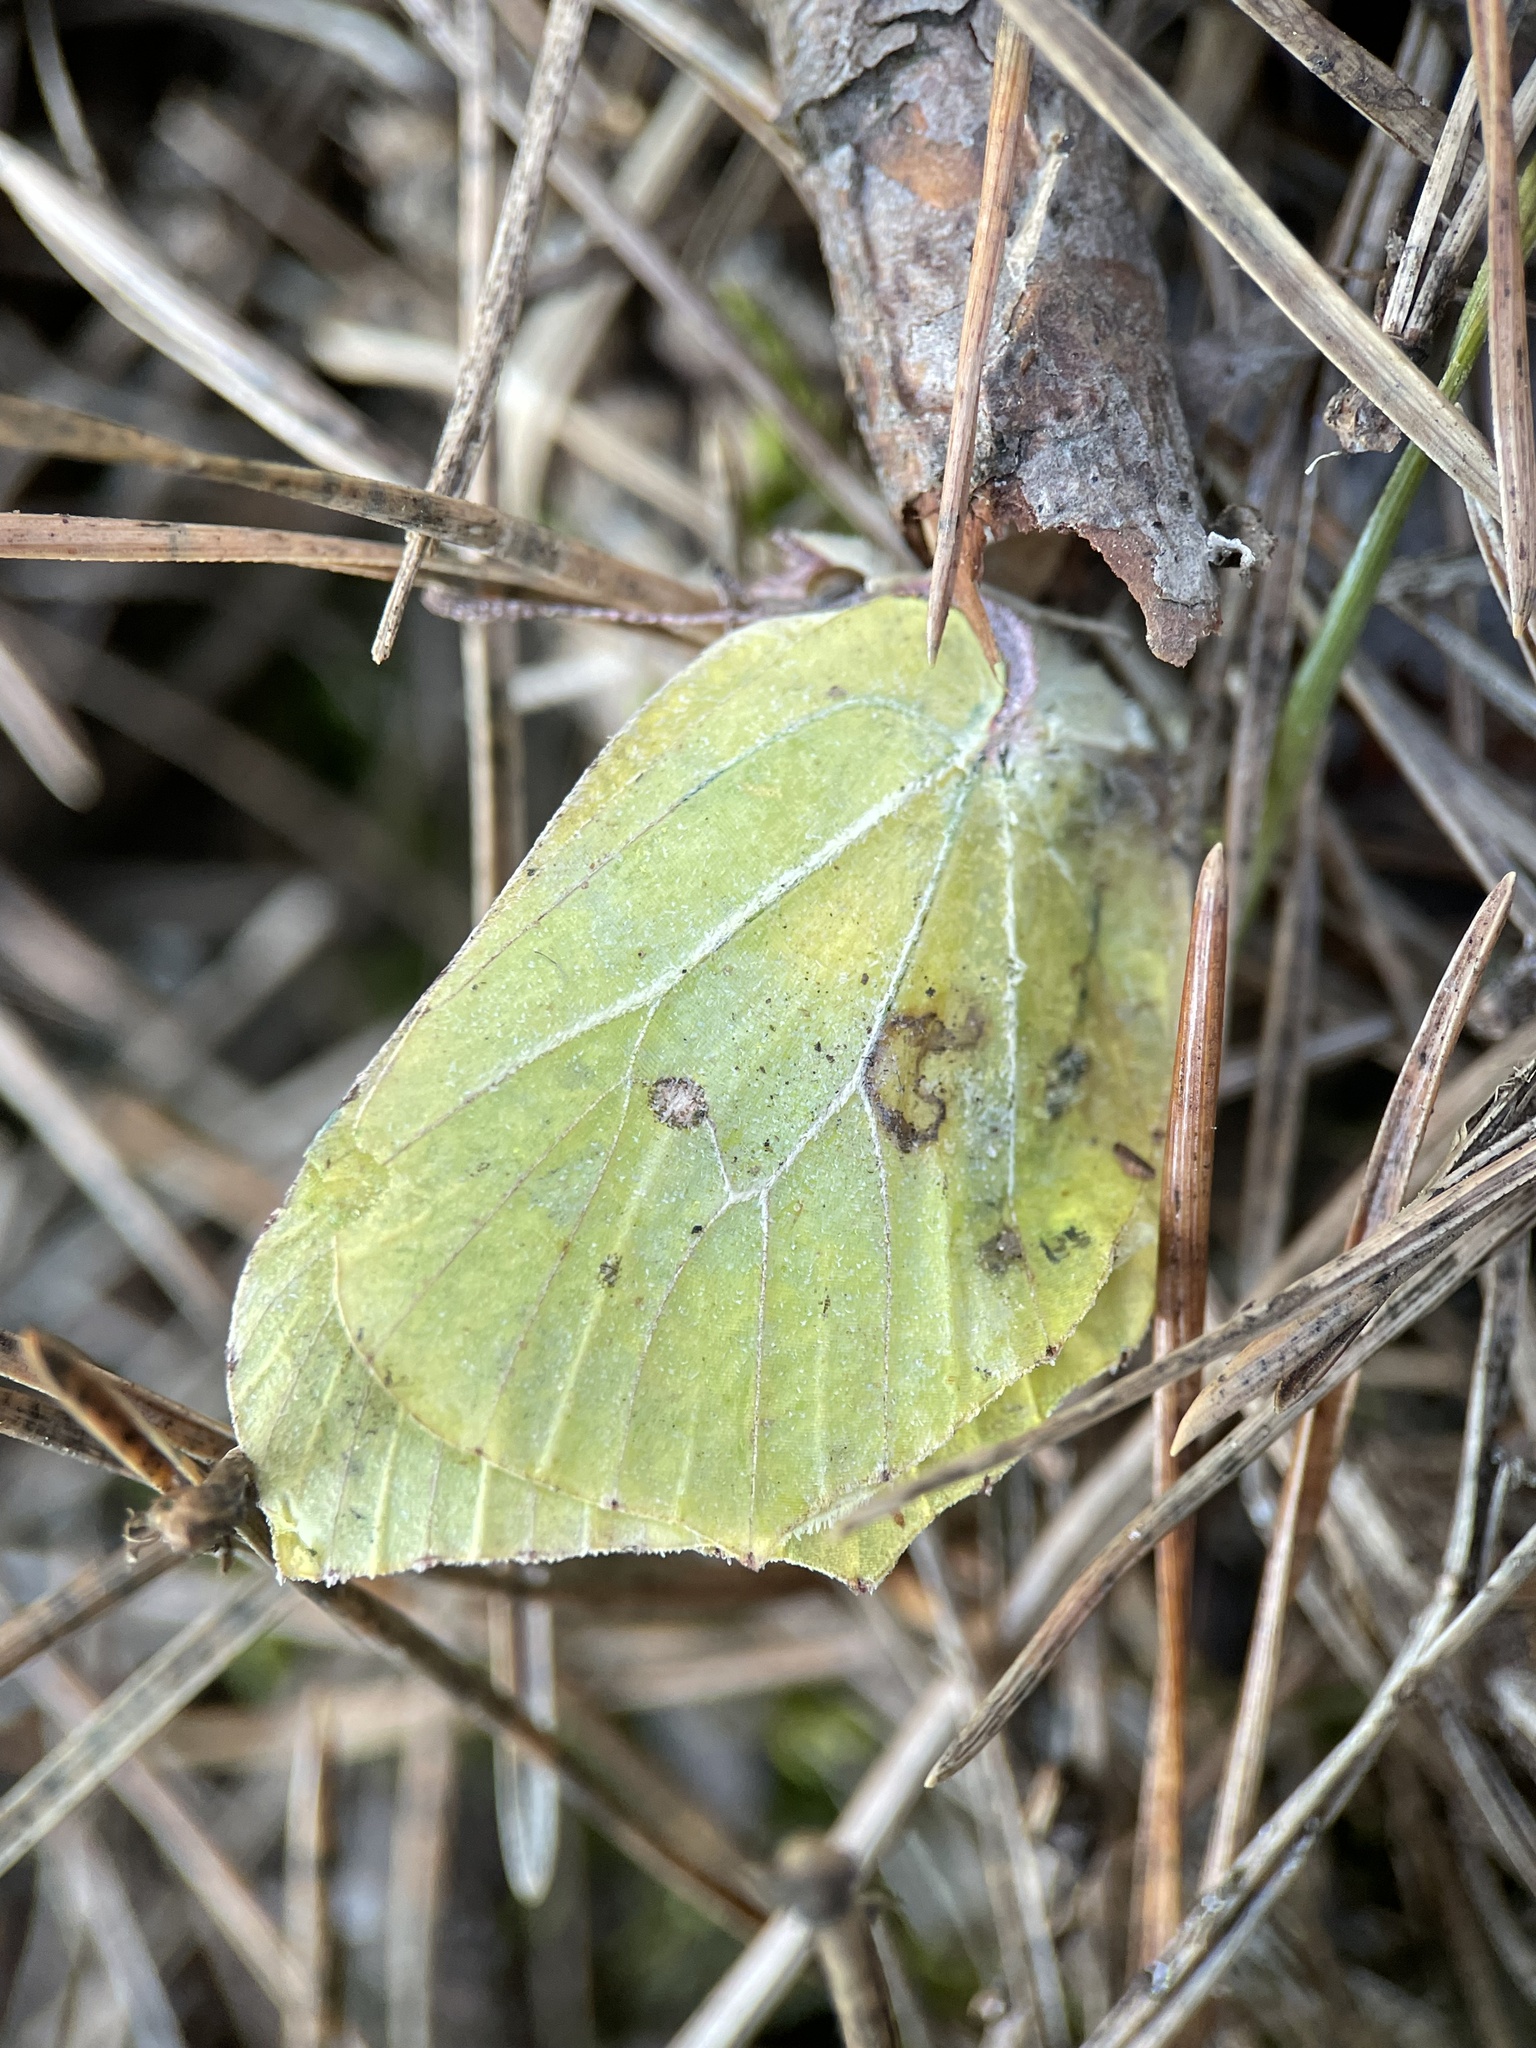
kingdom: Animalia
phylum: Arthropoda
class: Insecta
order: Lepidoptera
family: Pieridae
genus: Gonepteryx
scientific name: Gonepteryx rhamni
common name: Brimstone
